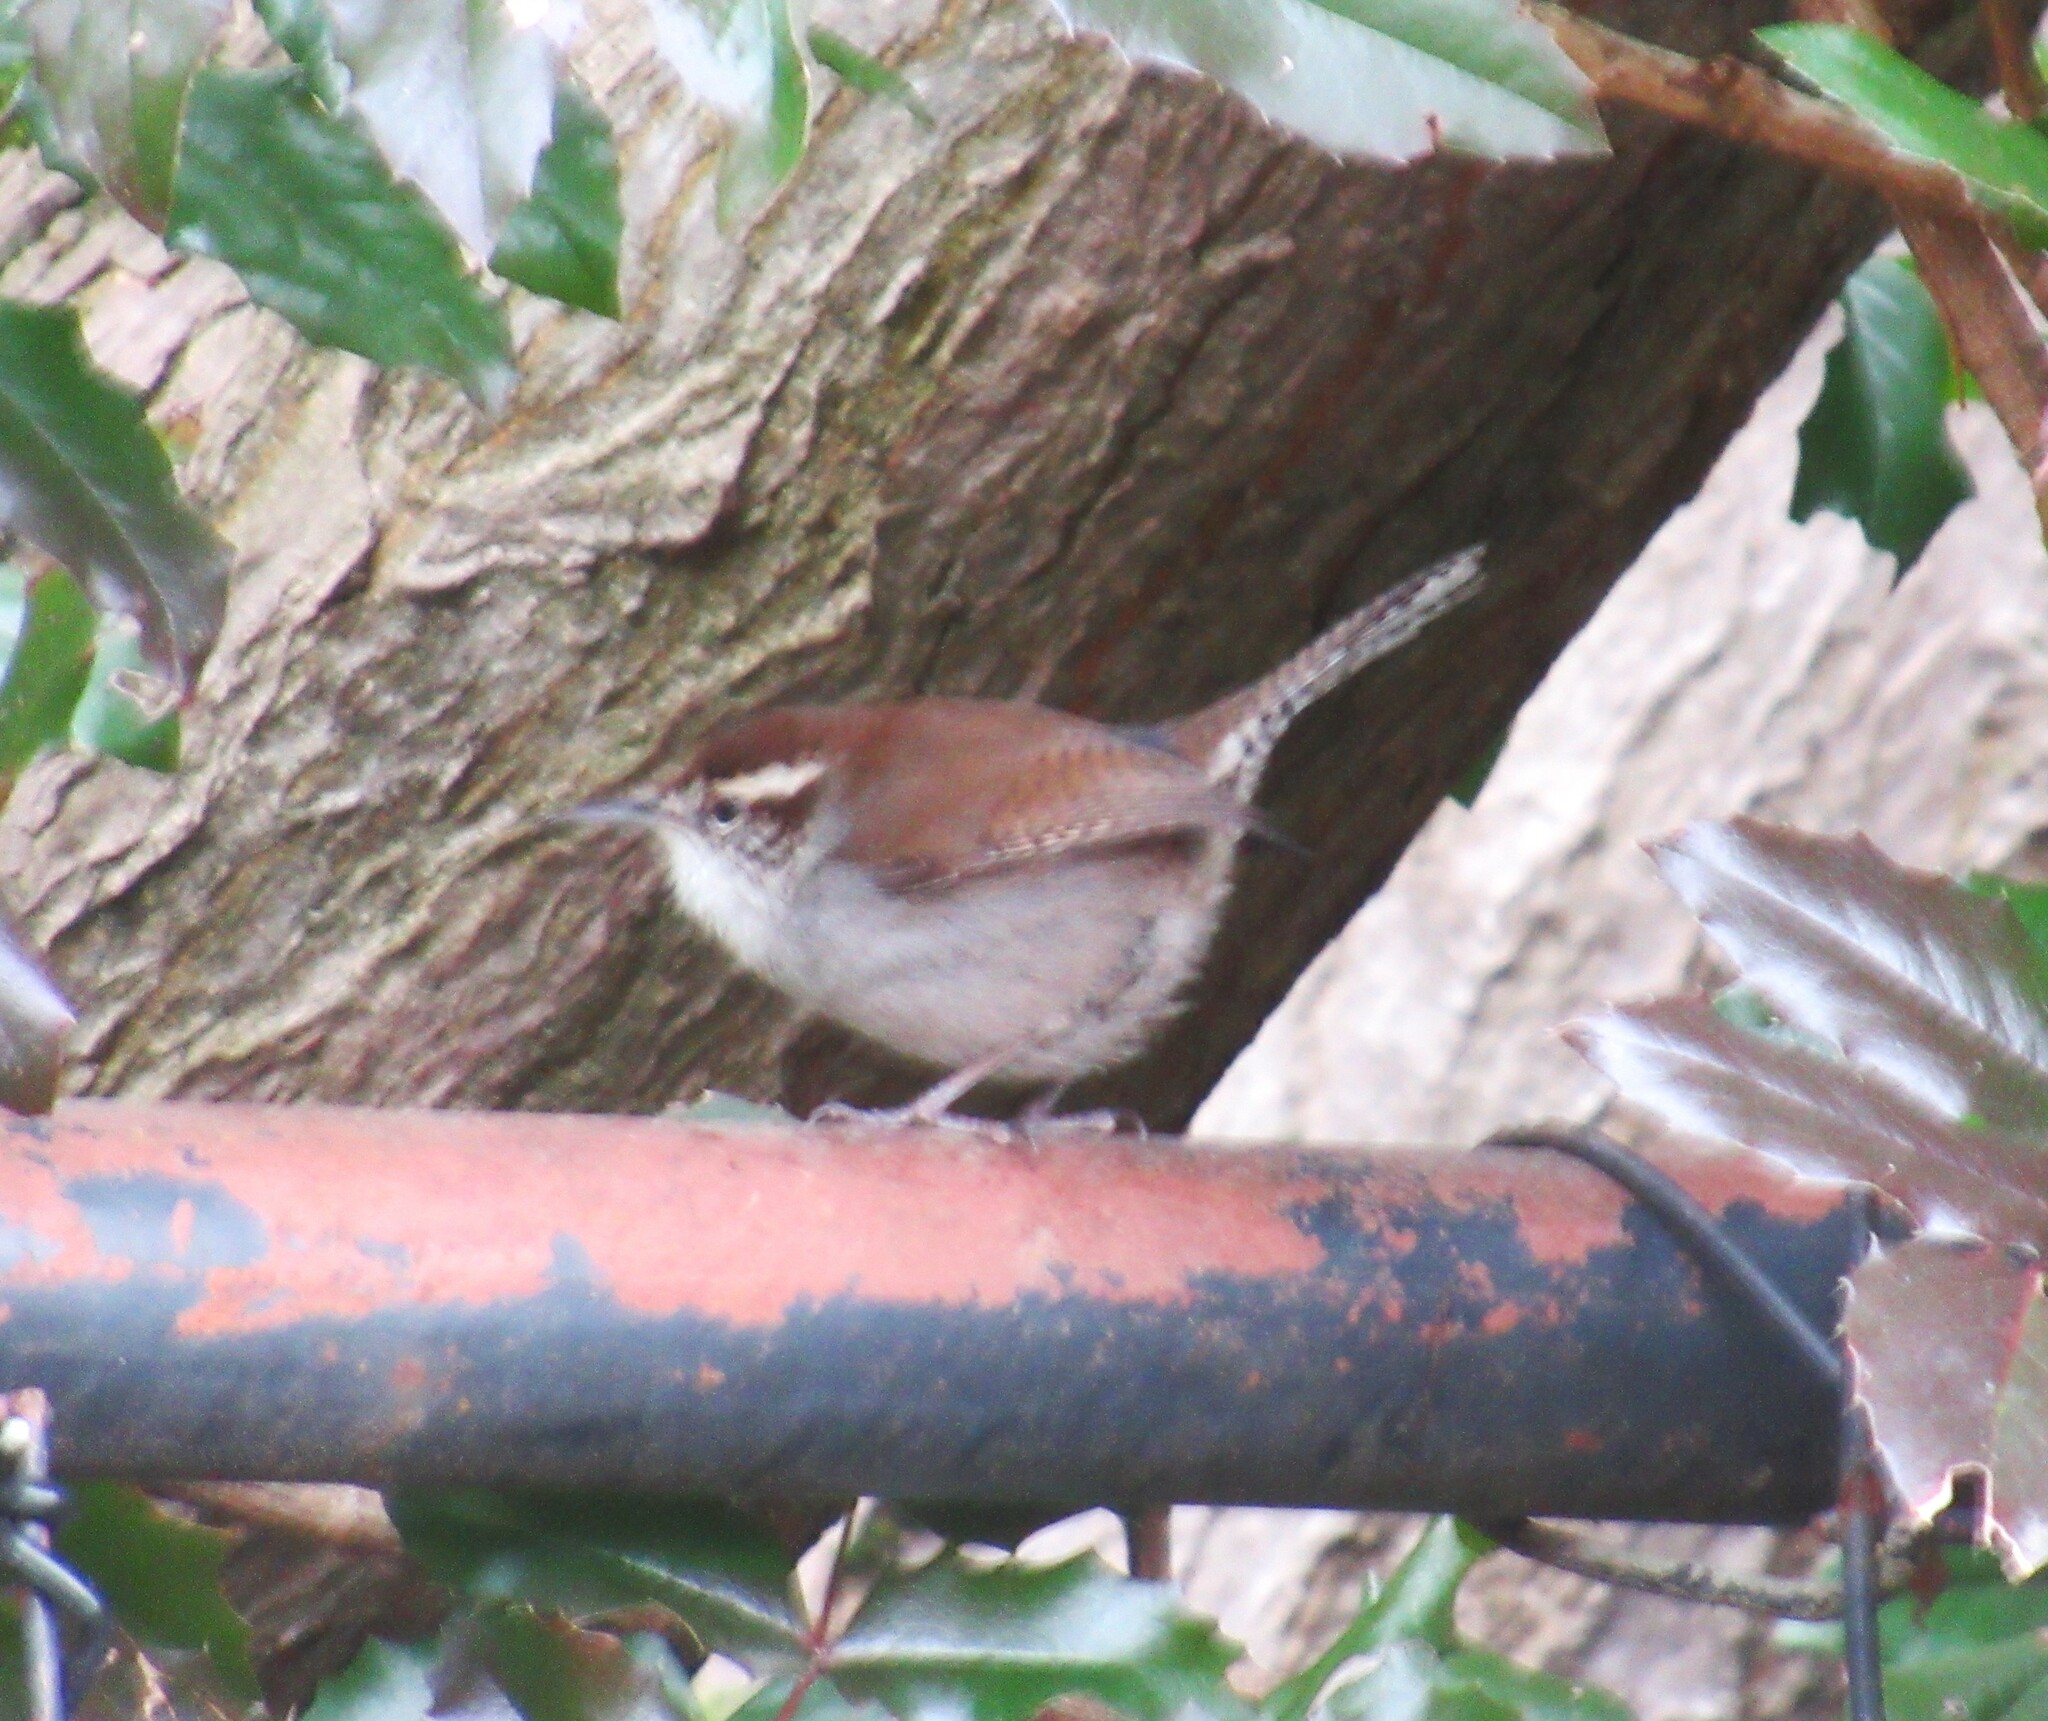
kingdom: Animalia
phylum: Chordata
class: Aves
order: Passeriformes
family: Troglodytidae
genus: Thryomanes
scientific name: Thryomanes bewickii
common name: Bewick's wren
